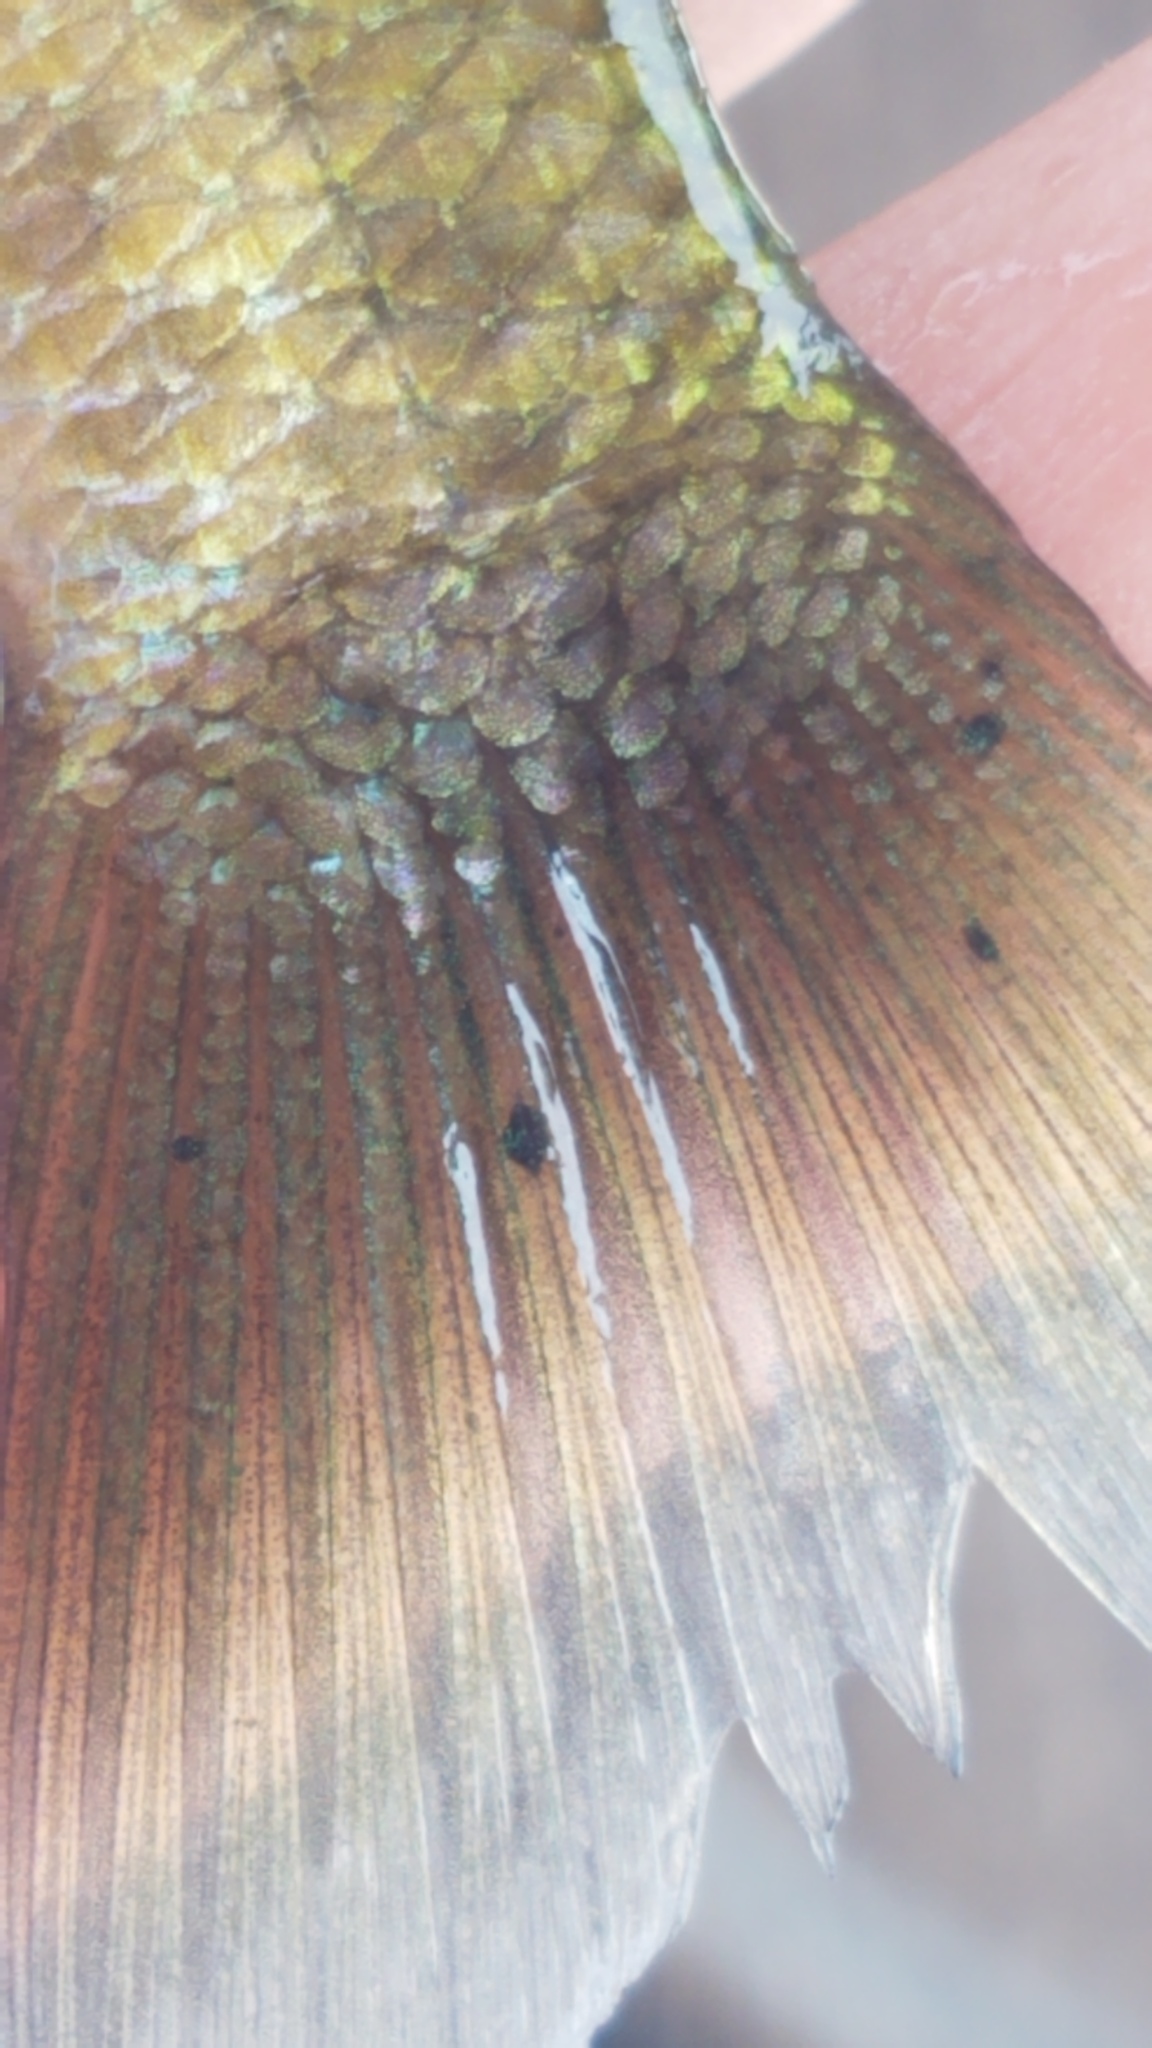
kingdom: Animalia
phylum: Platyhelminthes
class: Trematoda
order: Diplostomida
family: Diplostomidae
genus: Neascus
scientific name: Neascus
